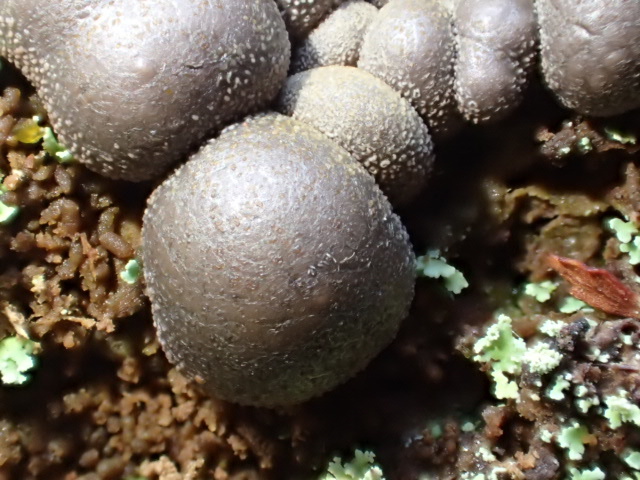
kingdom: Protozoa
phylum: Mycetozoa
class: Myxomycetes
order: Cribrariales
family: Tubiferaceae
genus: Lycogala
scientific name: Lycogala epidendrum
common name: Wolf's milk
